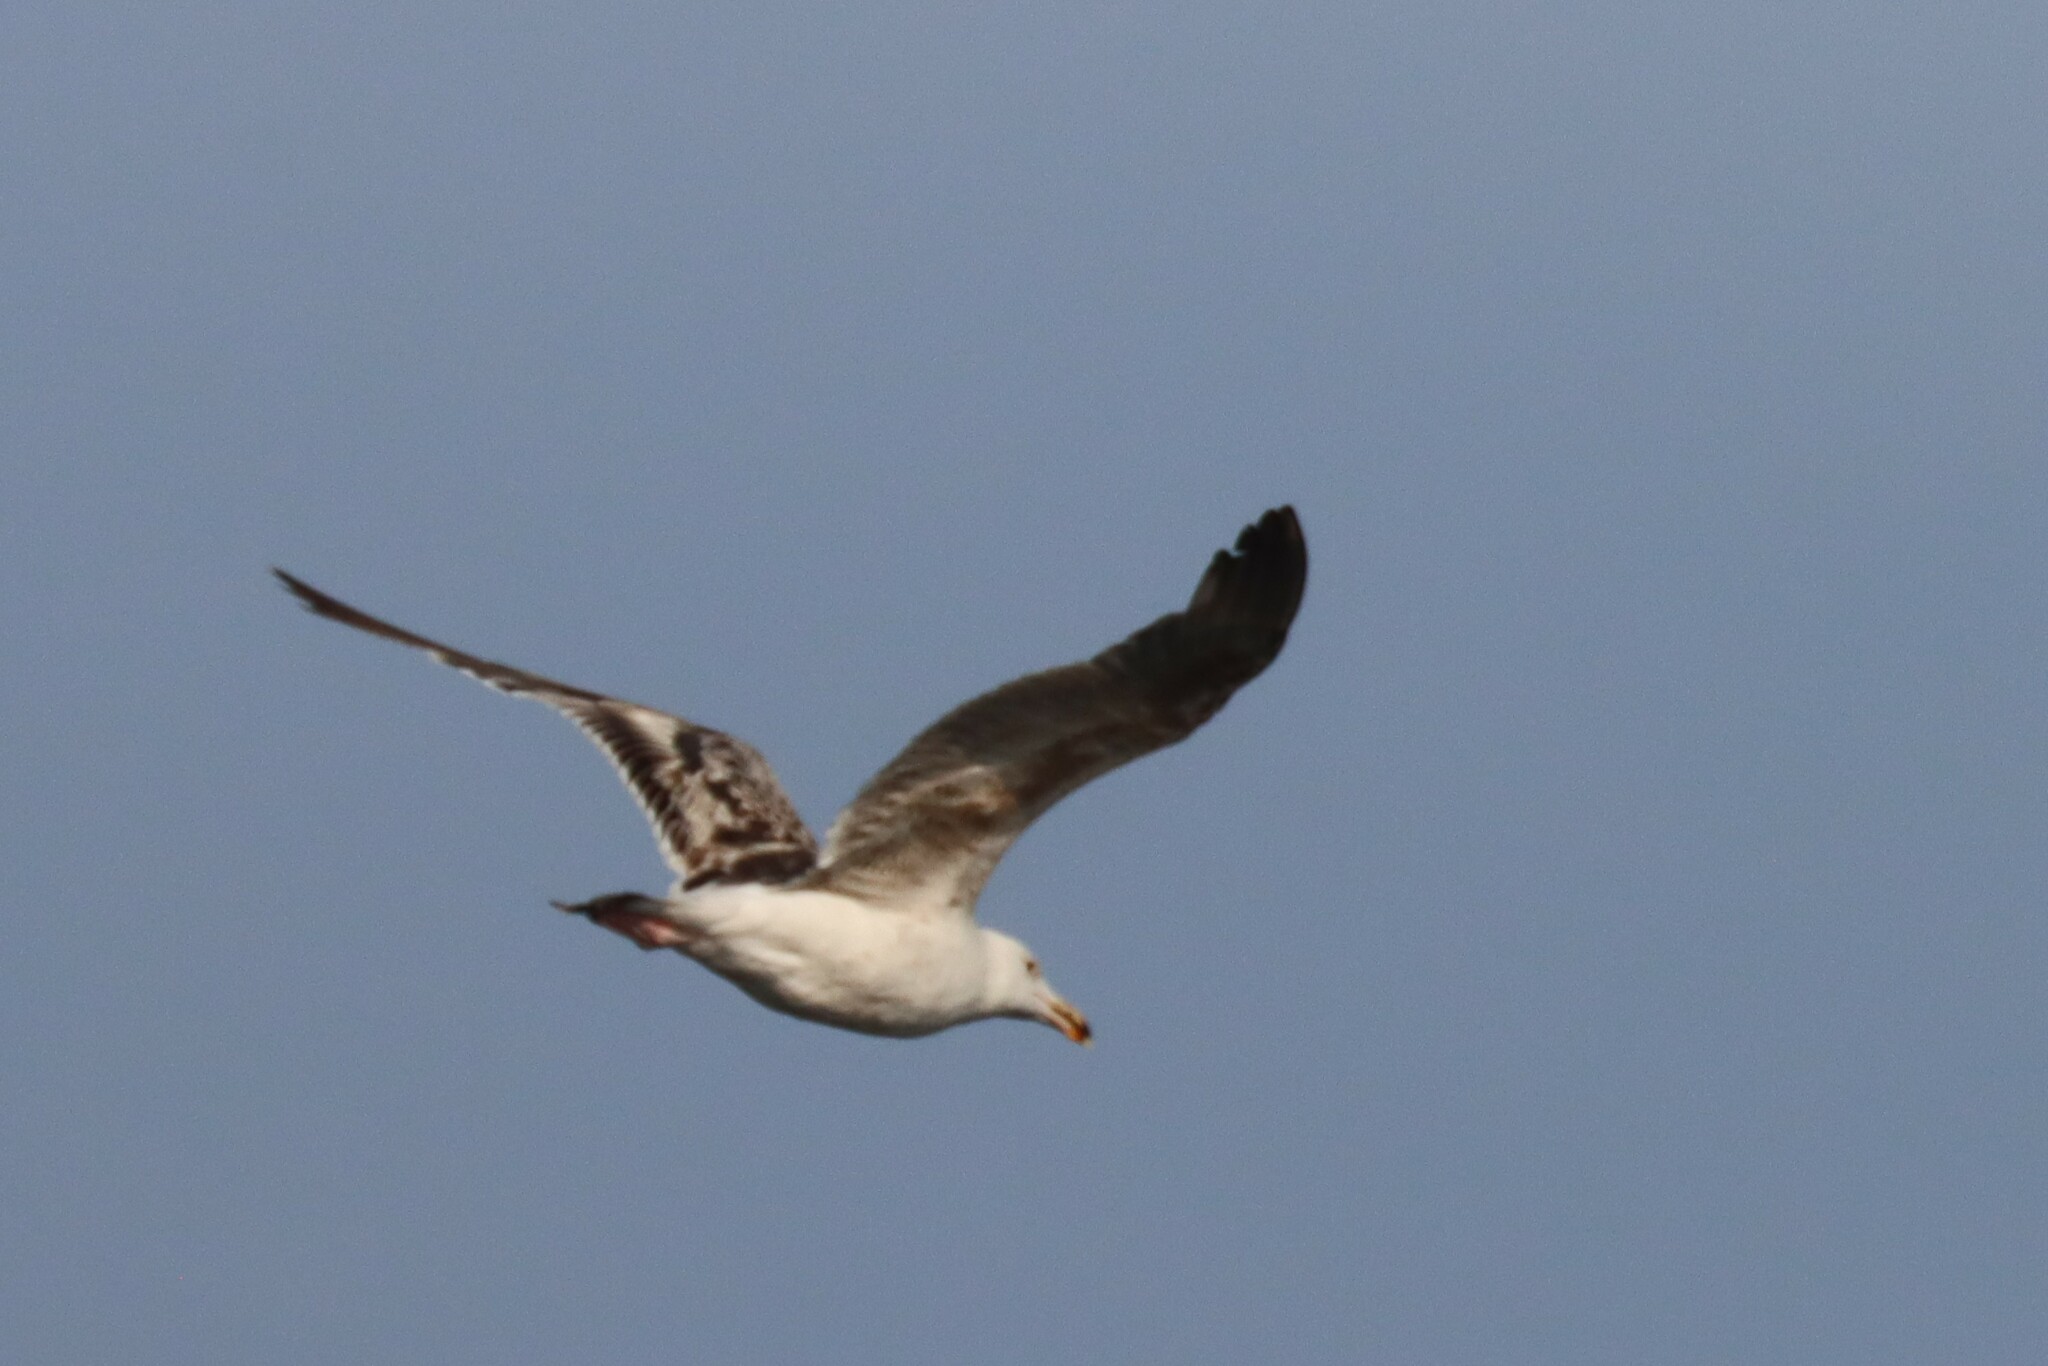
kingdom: Animalia
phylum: Chordata
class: Aves
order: Charadriiformes
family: Laridae
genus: Larus
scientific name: Larus marinus
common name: Great black-backed gull
